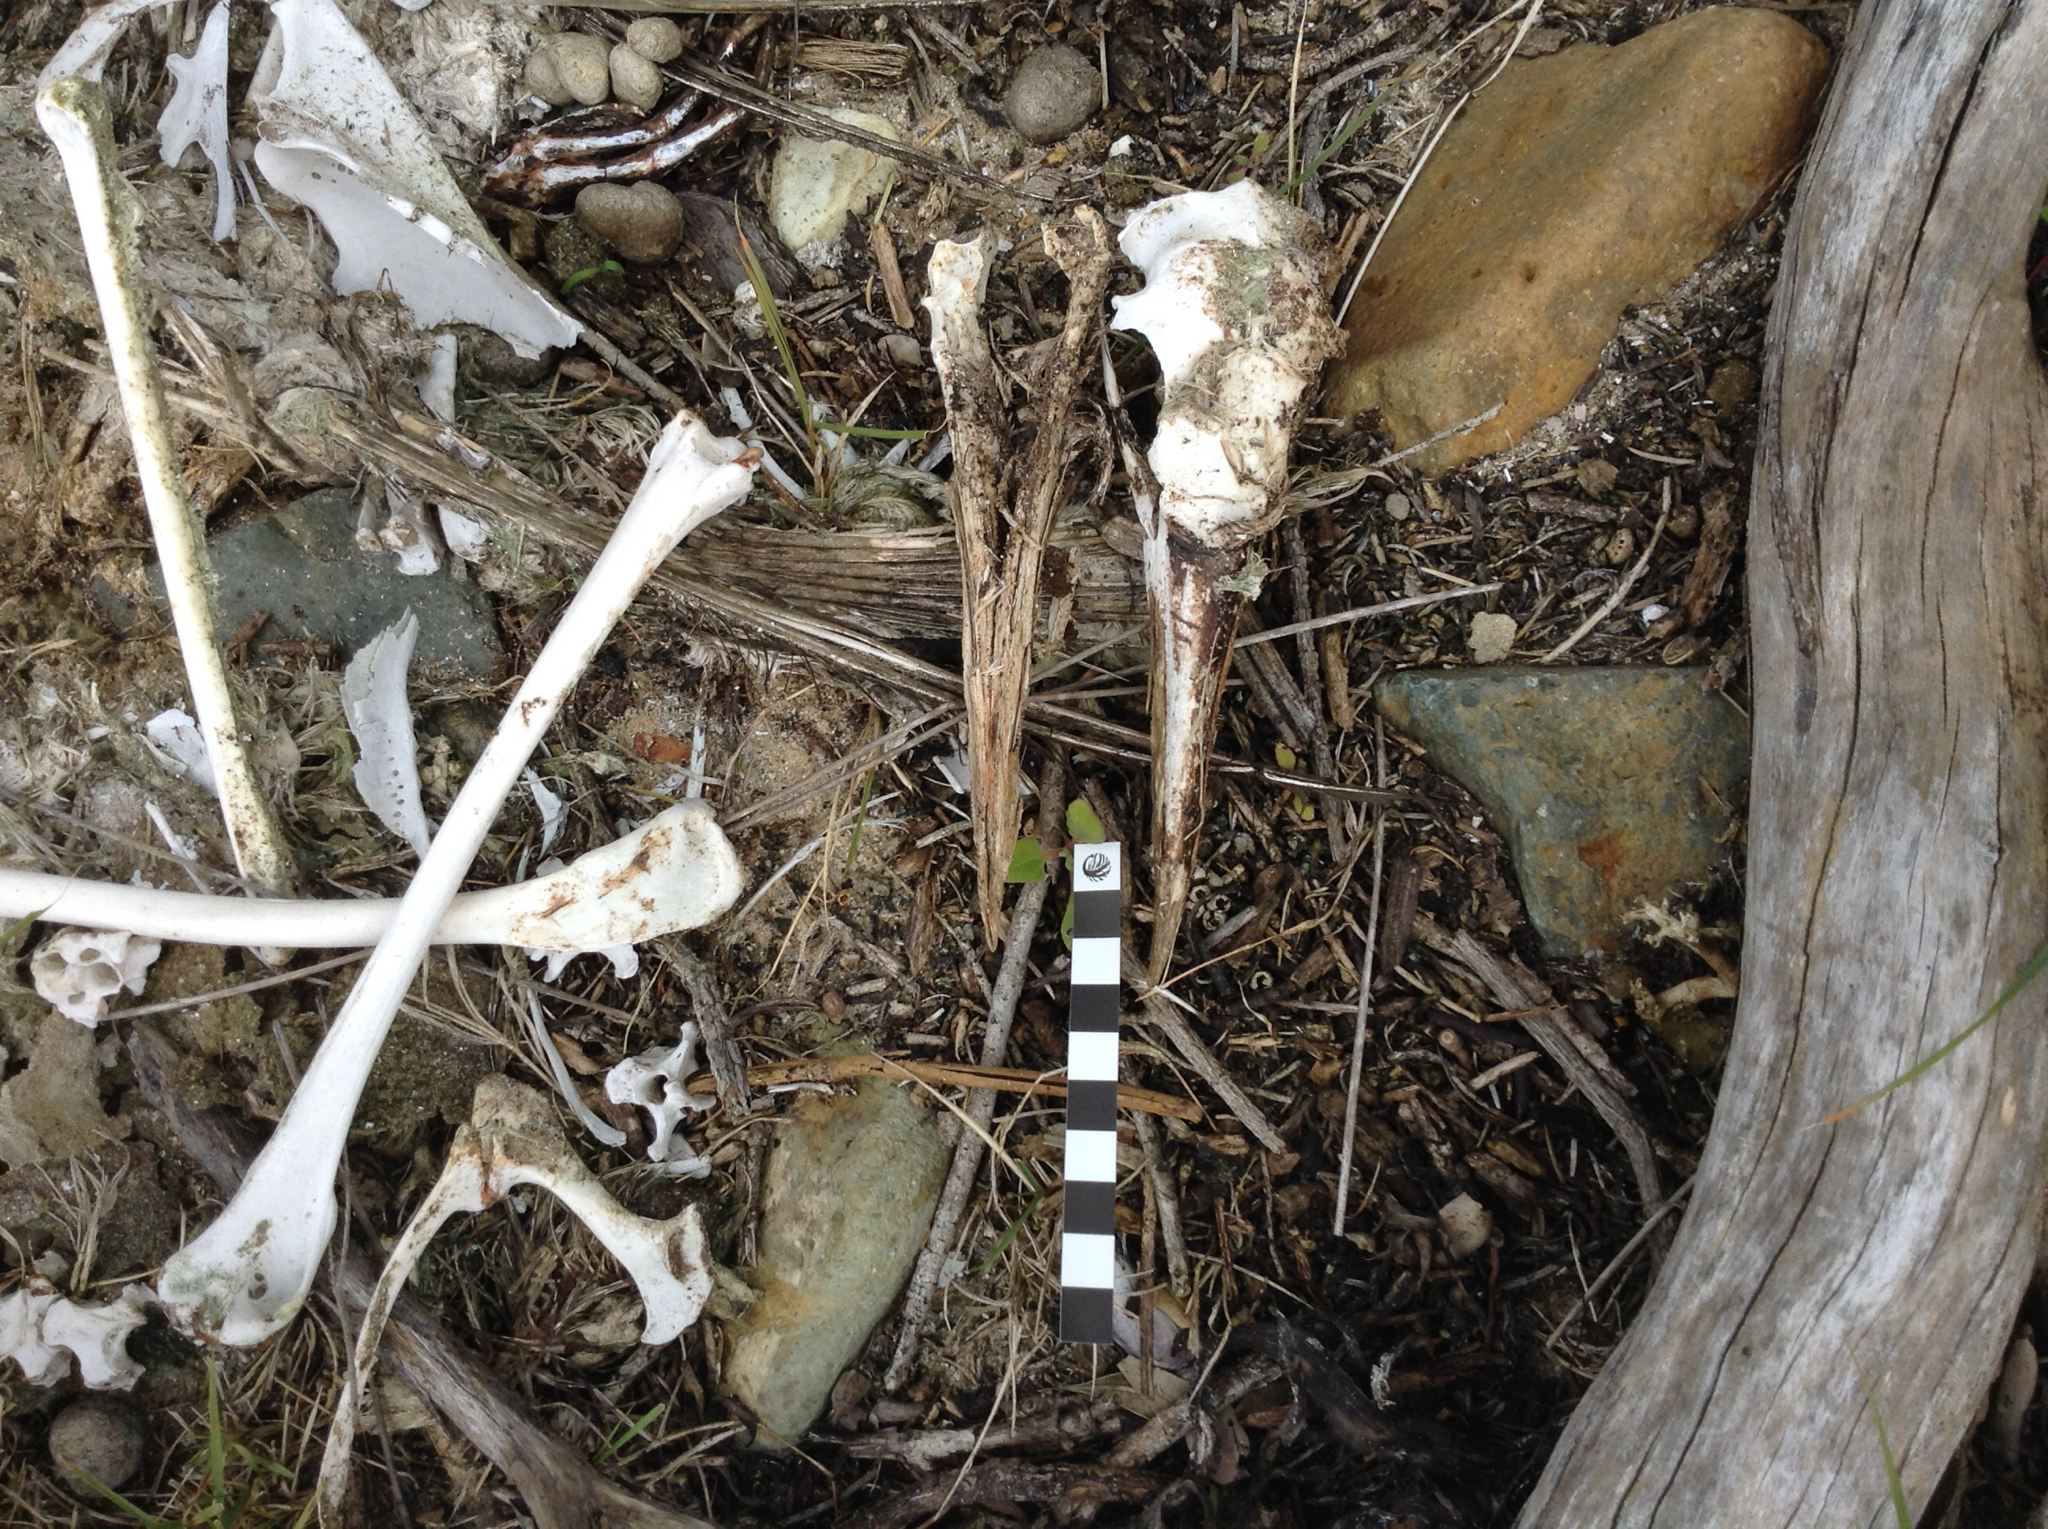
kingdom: Animalia
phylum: Chordata
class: Aves
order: Suliformes
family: Sulidae
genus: Morus
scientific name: Morus serrator
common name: Australasian gannet
